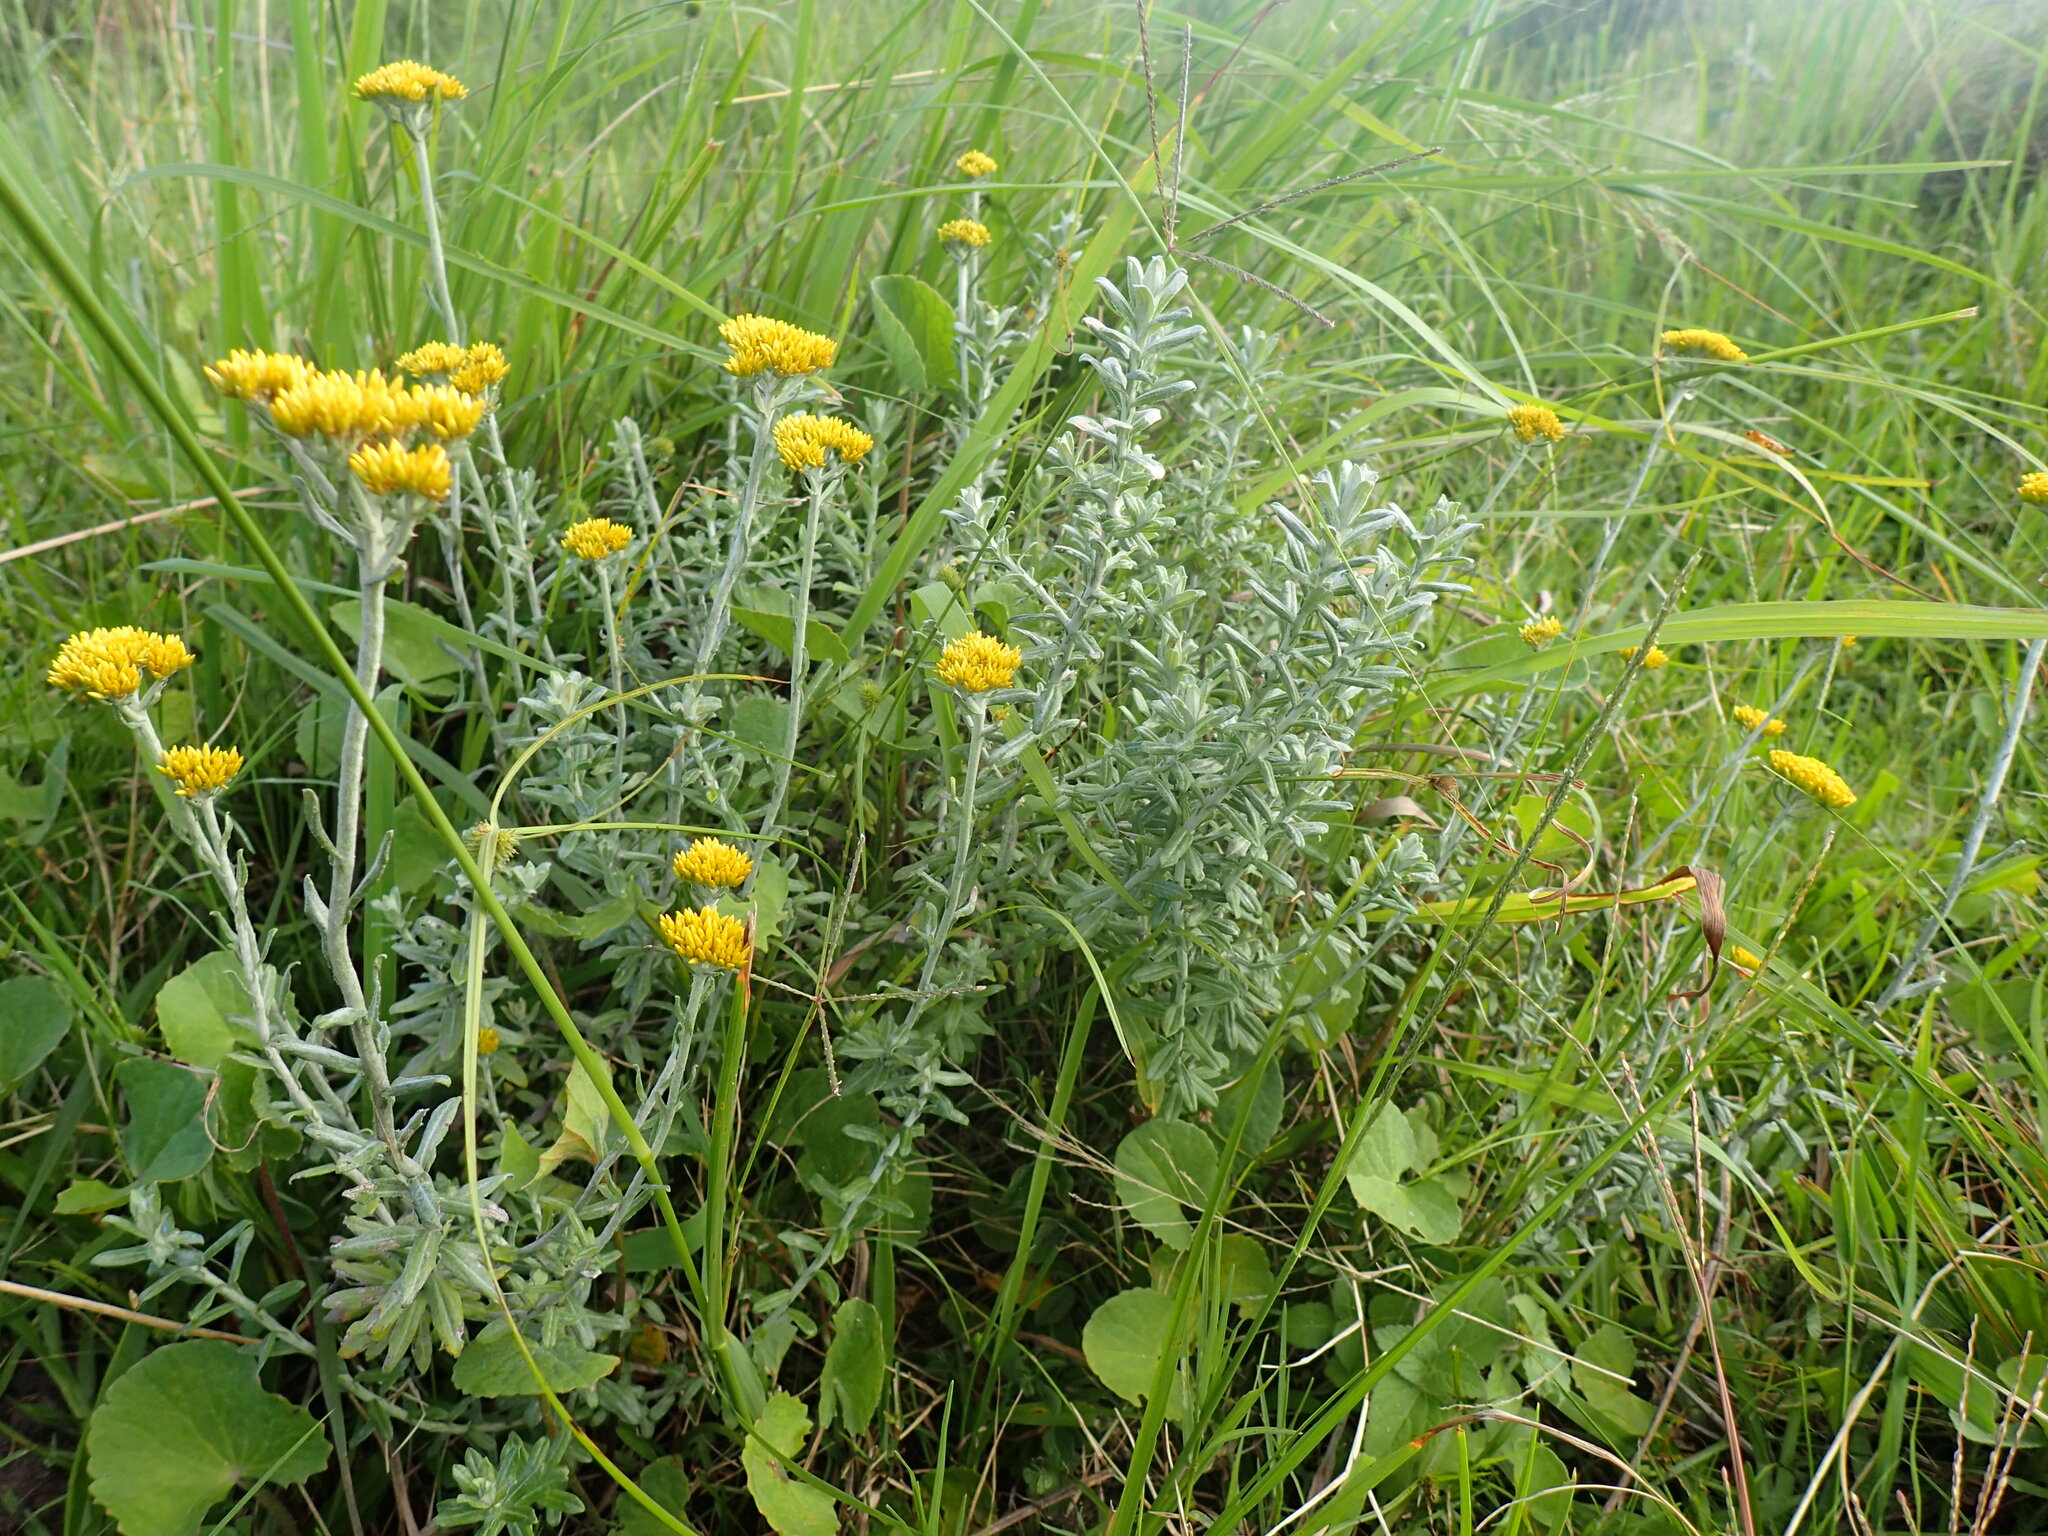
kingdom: Plantae
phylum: Tracheophyta
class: Magnoliopsida
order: Asterales
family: Asteraceae
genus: Helichrysum
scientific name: Helichrysum cymosum
